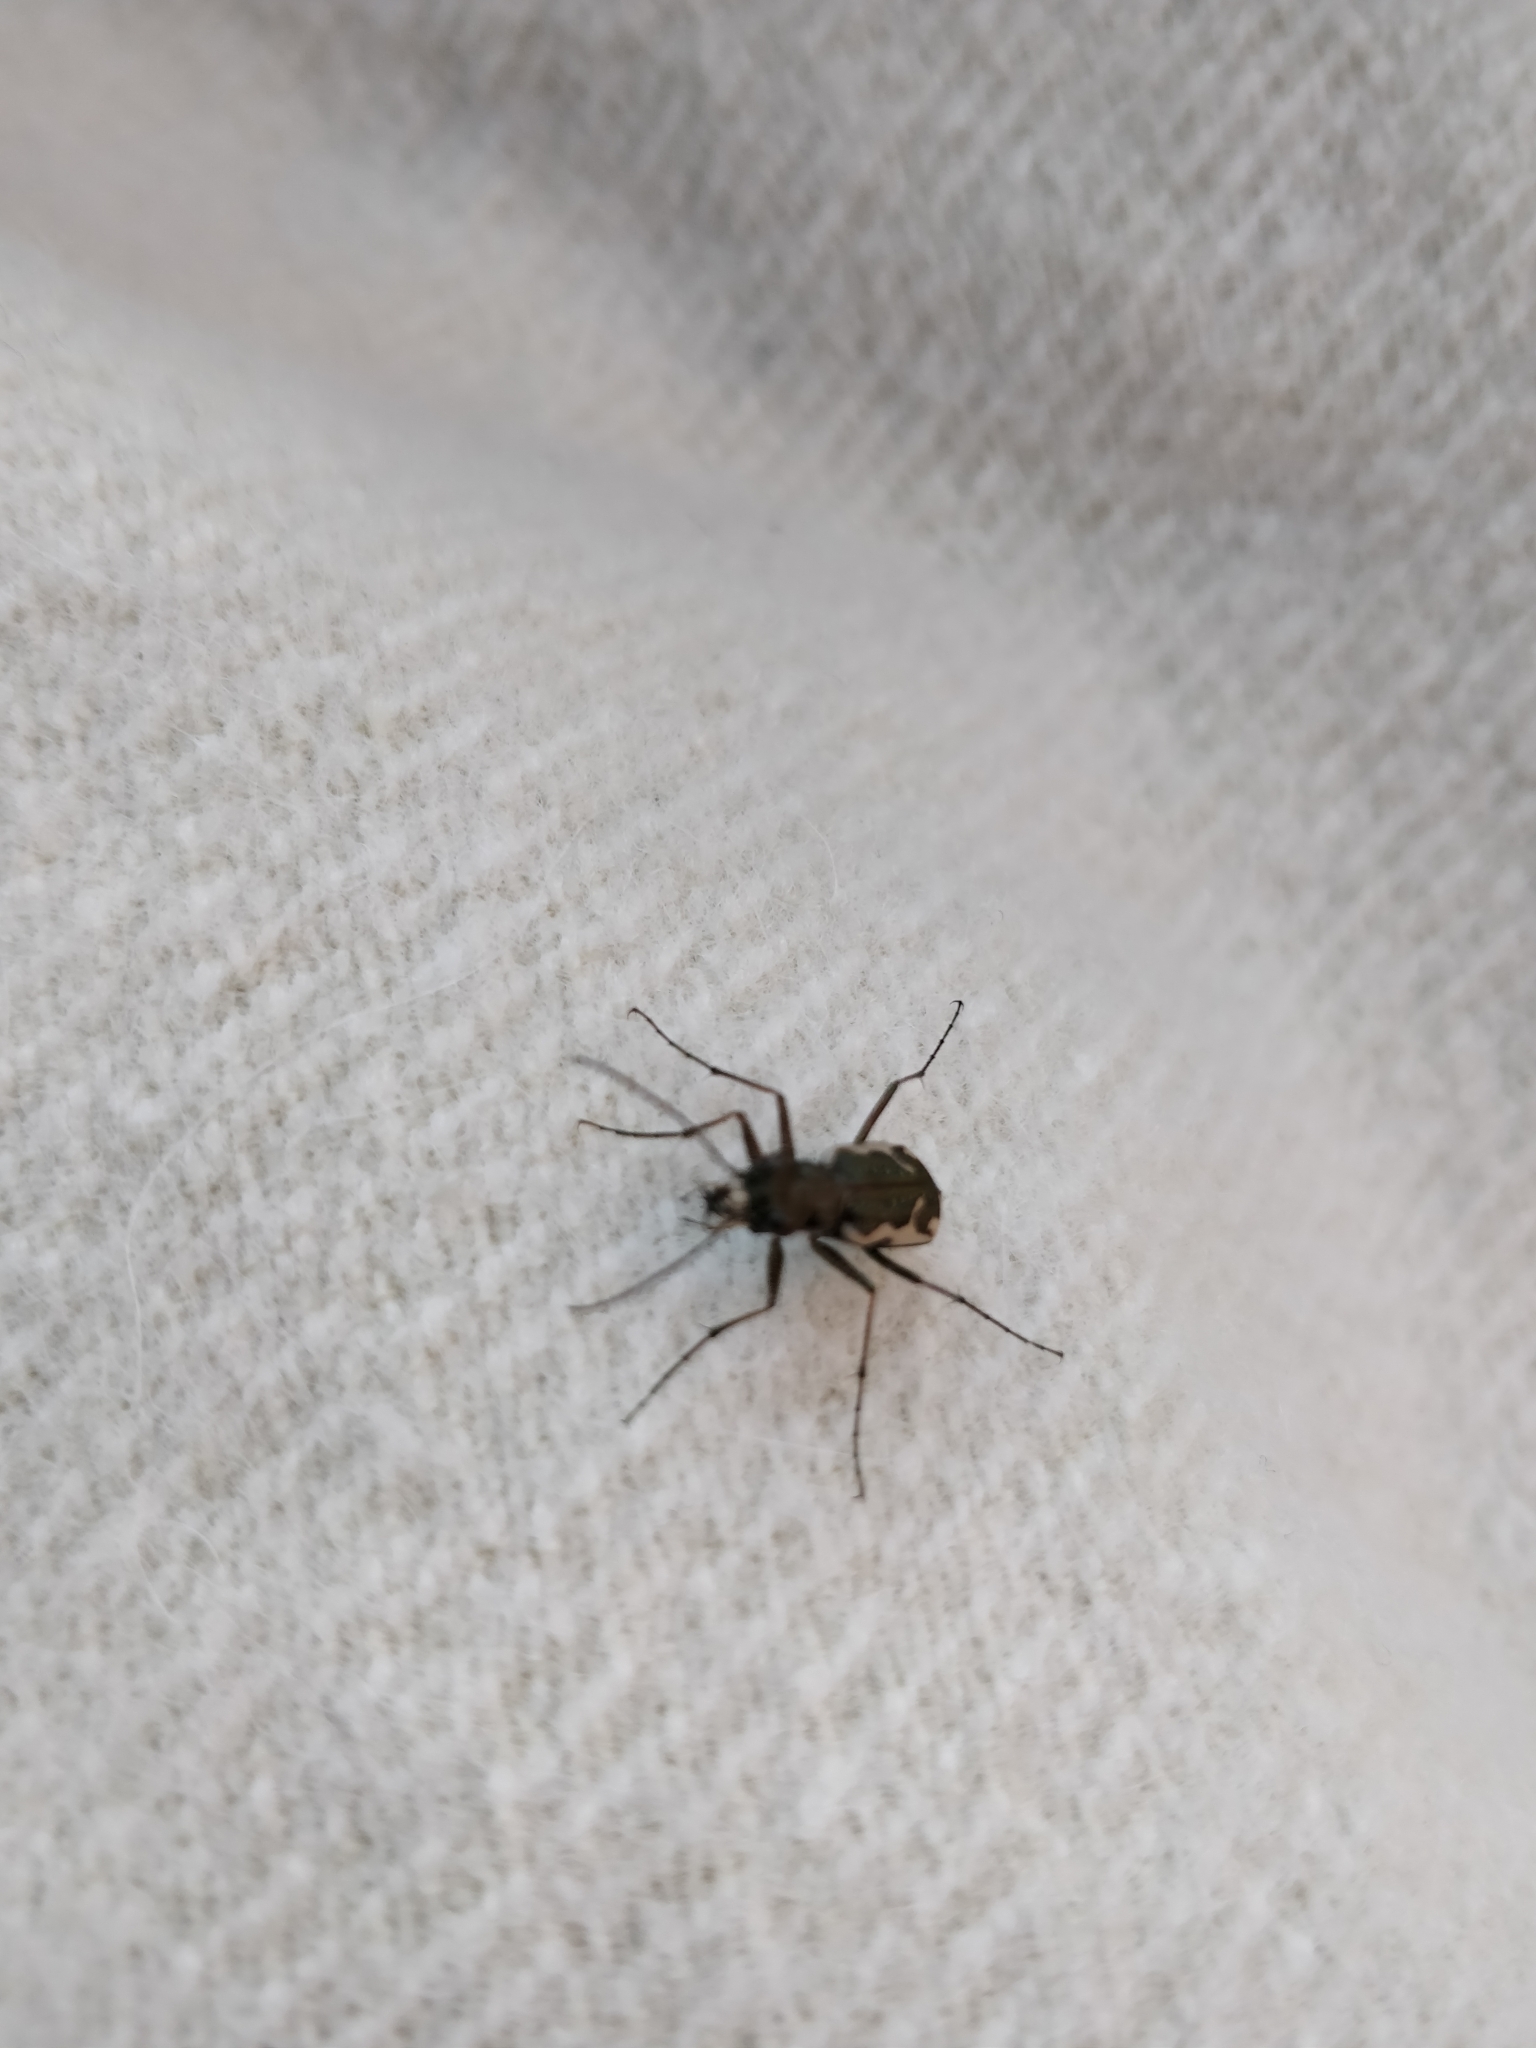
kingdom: Animalia
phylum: Arthropoda
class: Insecta
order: Coleoptera
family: Carabidae
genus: Neocicindela
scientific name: Neocicindela tuberculata
